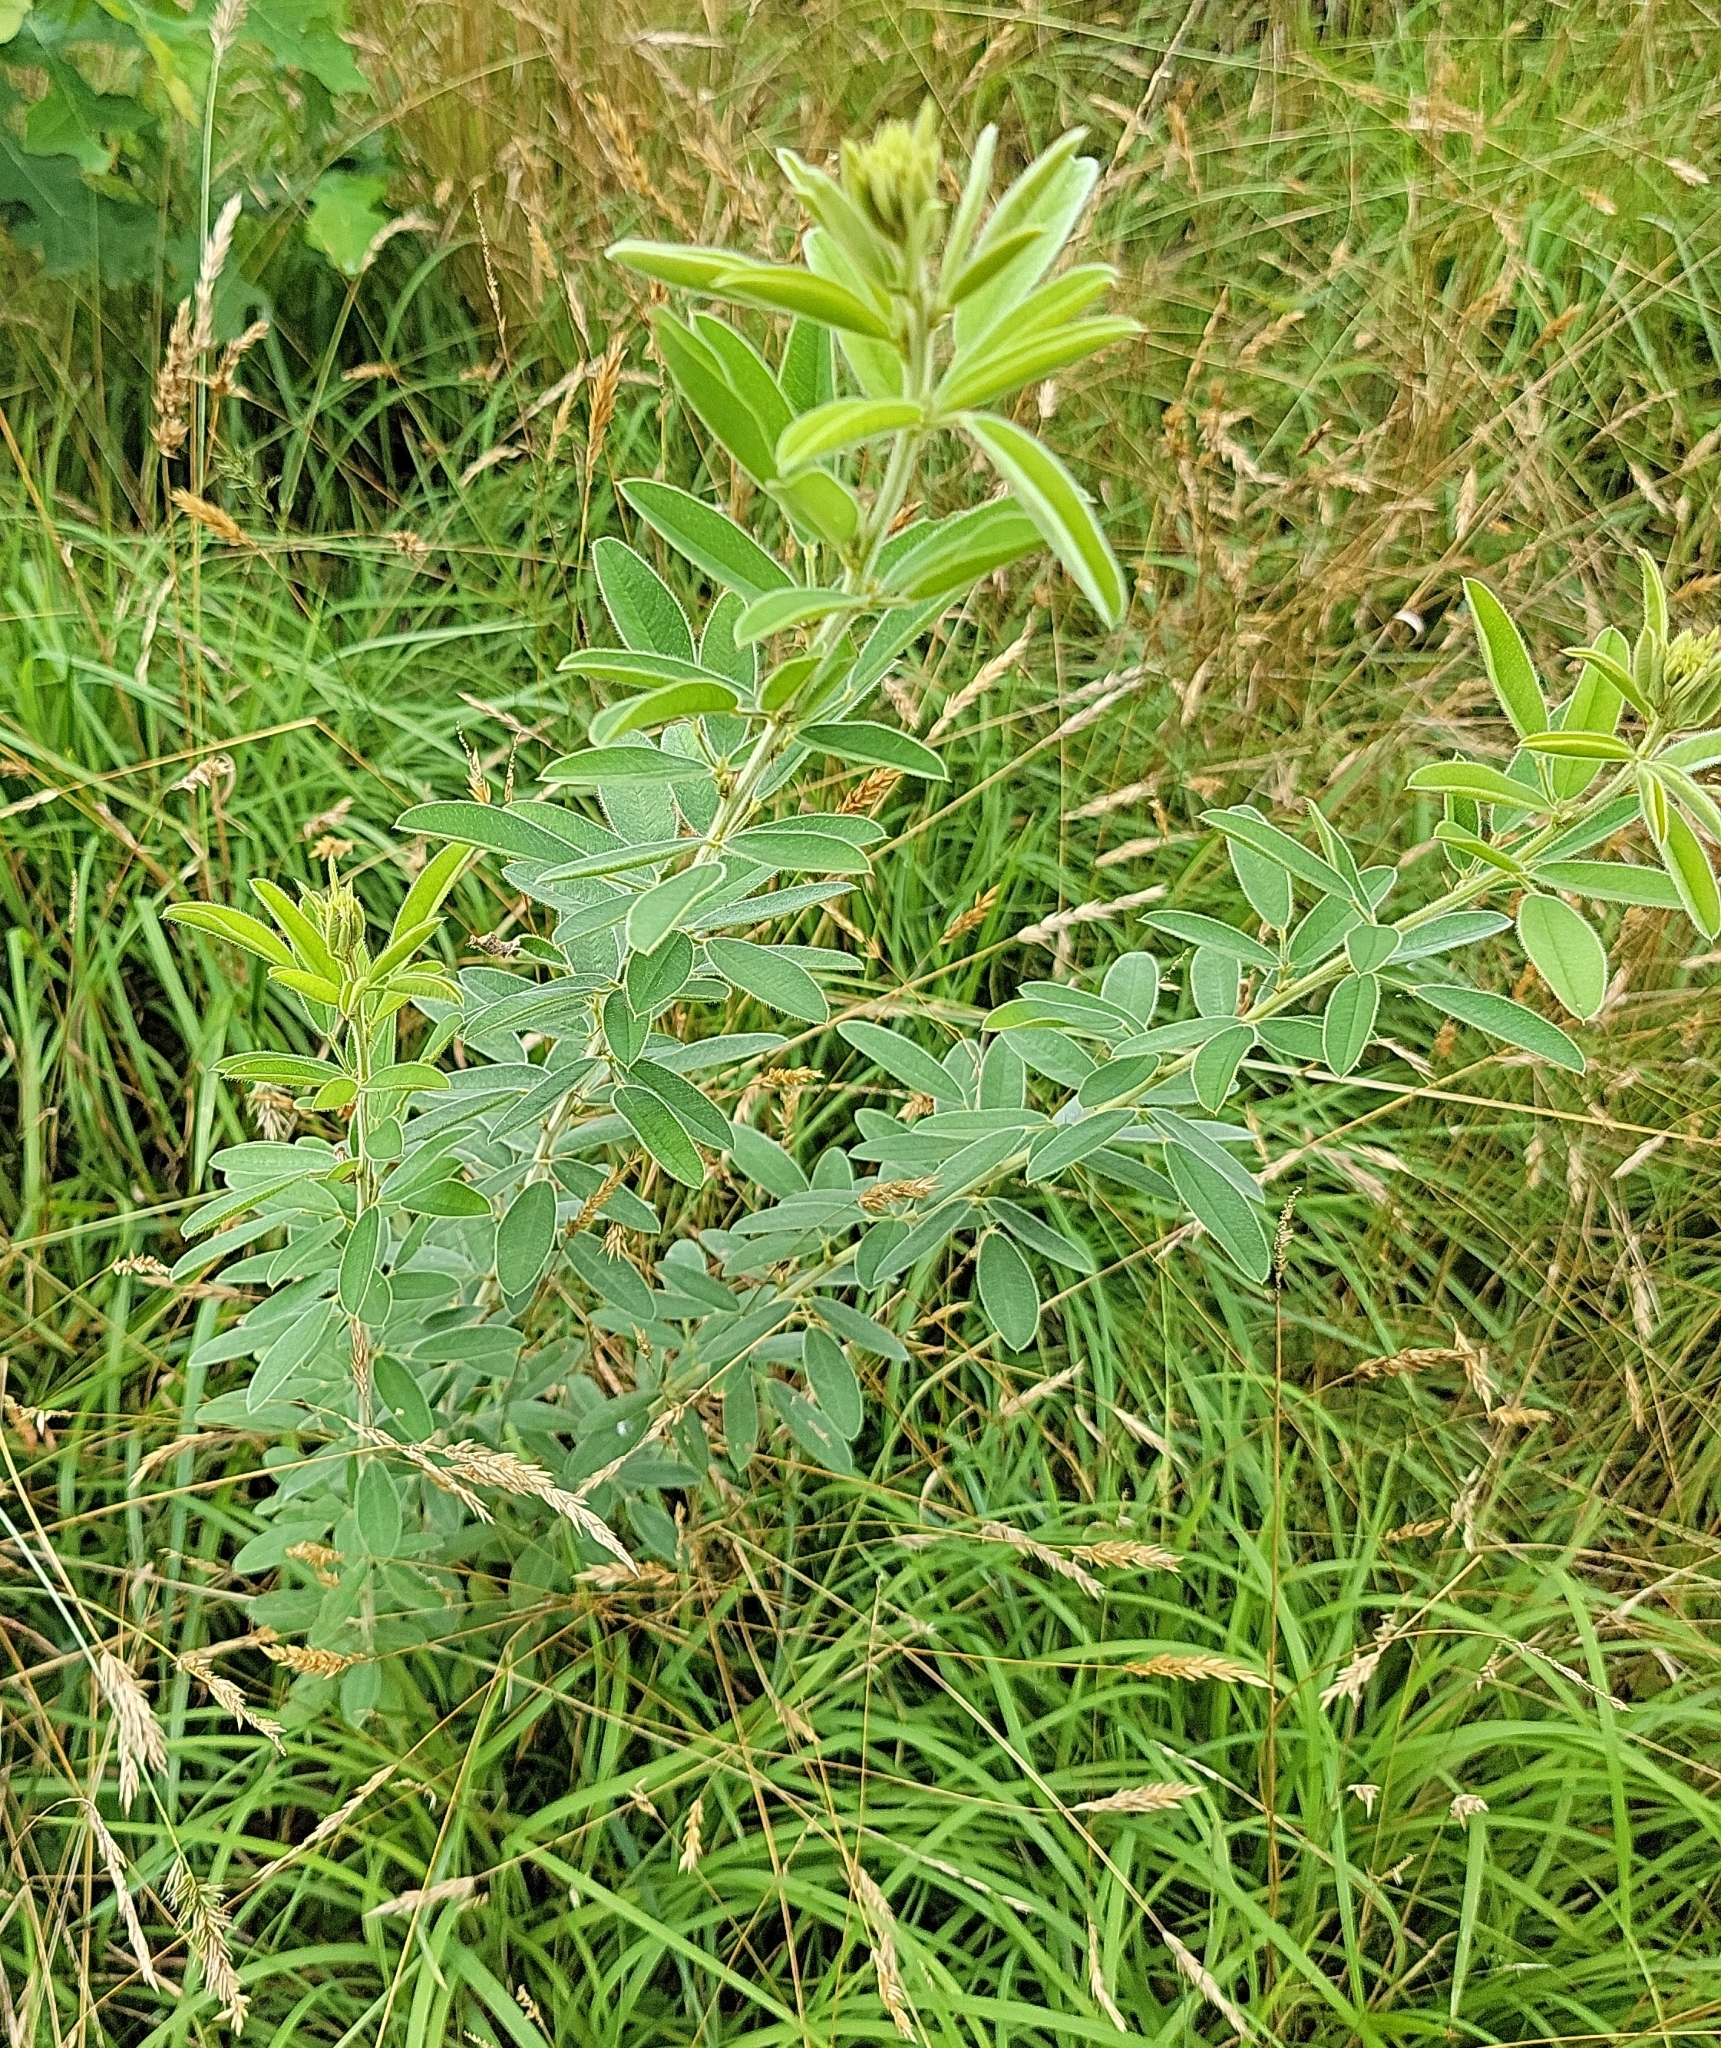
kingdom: Plantae
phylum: Tracheophyta
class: Magnoliopsida
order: Fabales
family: Fabaceae
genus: Lespedeza
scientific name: Lespedeza capitata
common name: Dusty clover
